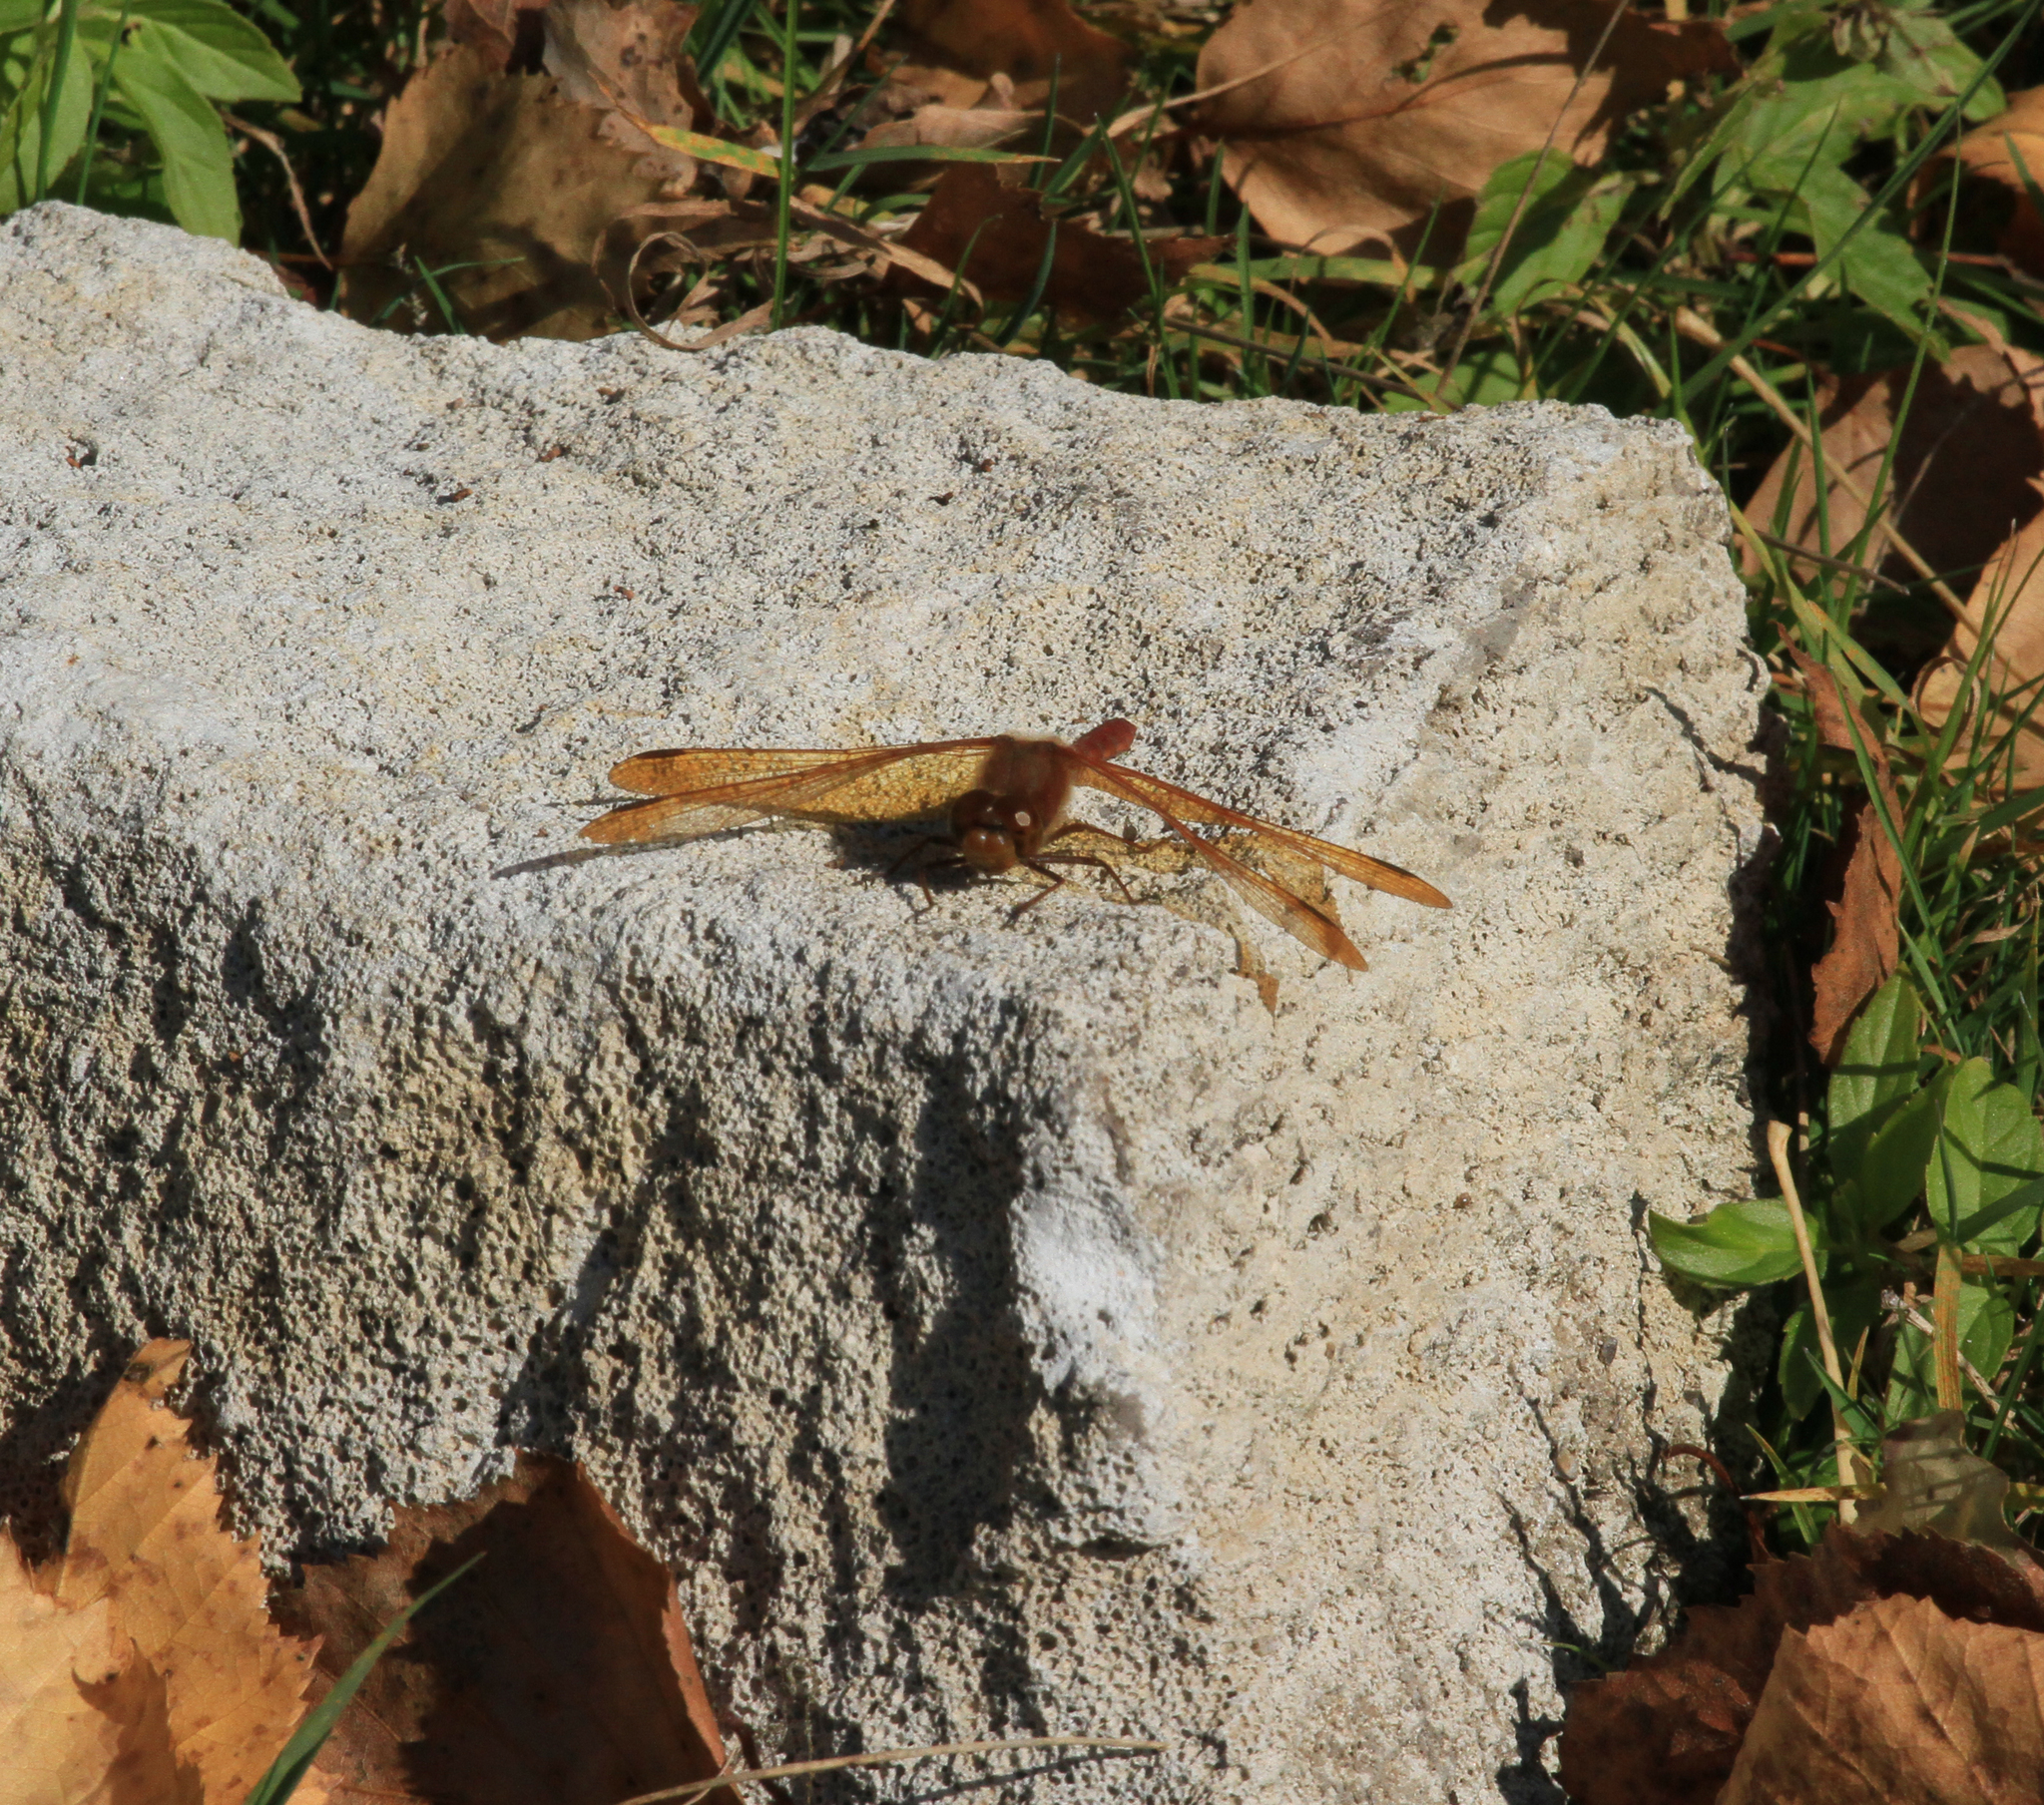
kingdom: Animalia
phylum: Arthropoda
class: Insecta
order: Odonata
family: Libellulidae
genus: Sympetrum
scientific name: Sympetrum croceolum
